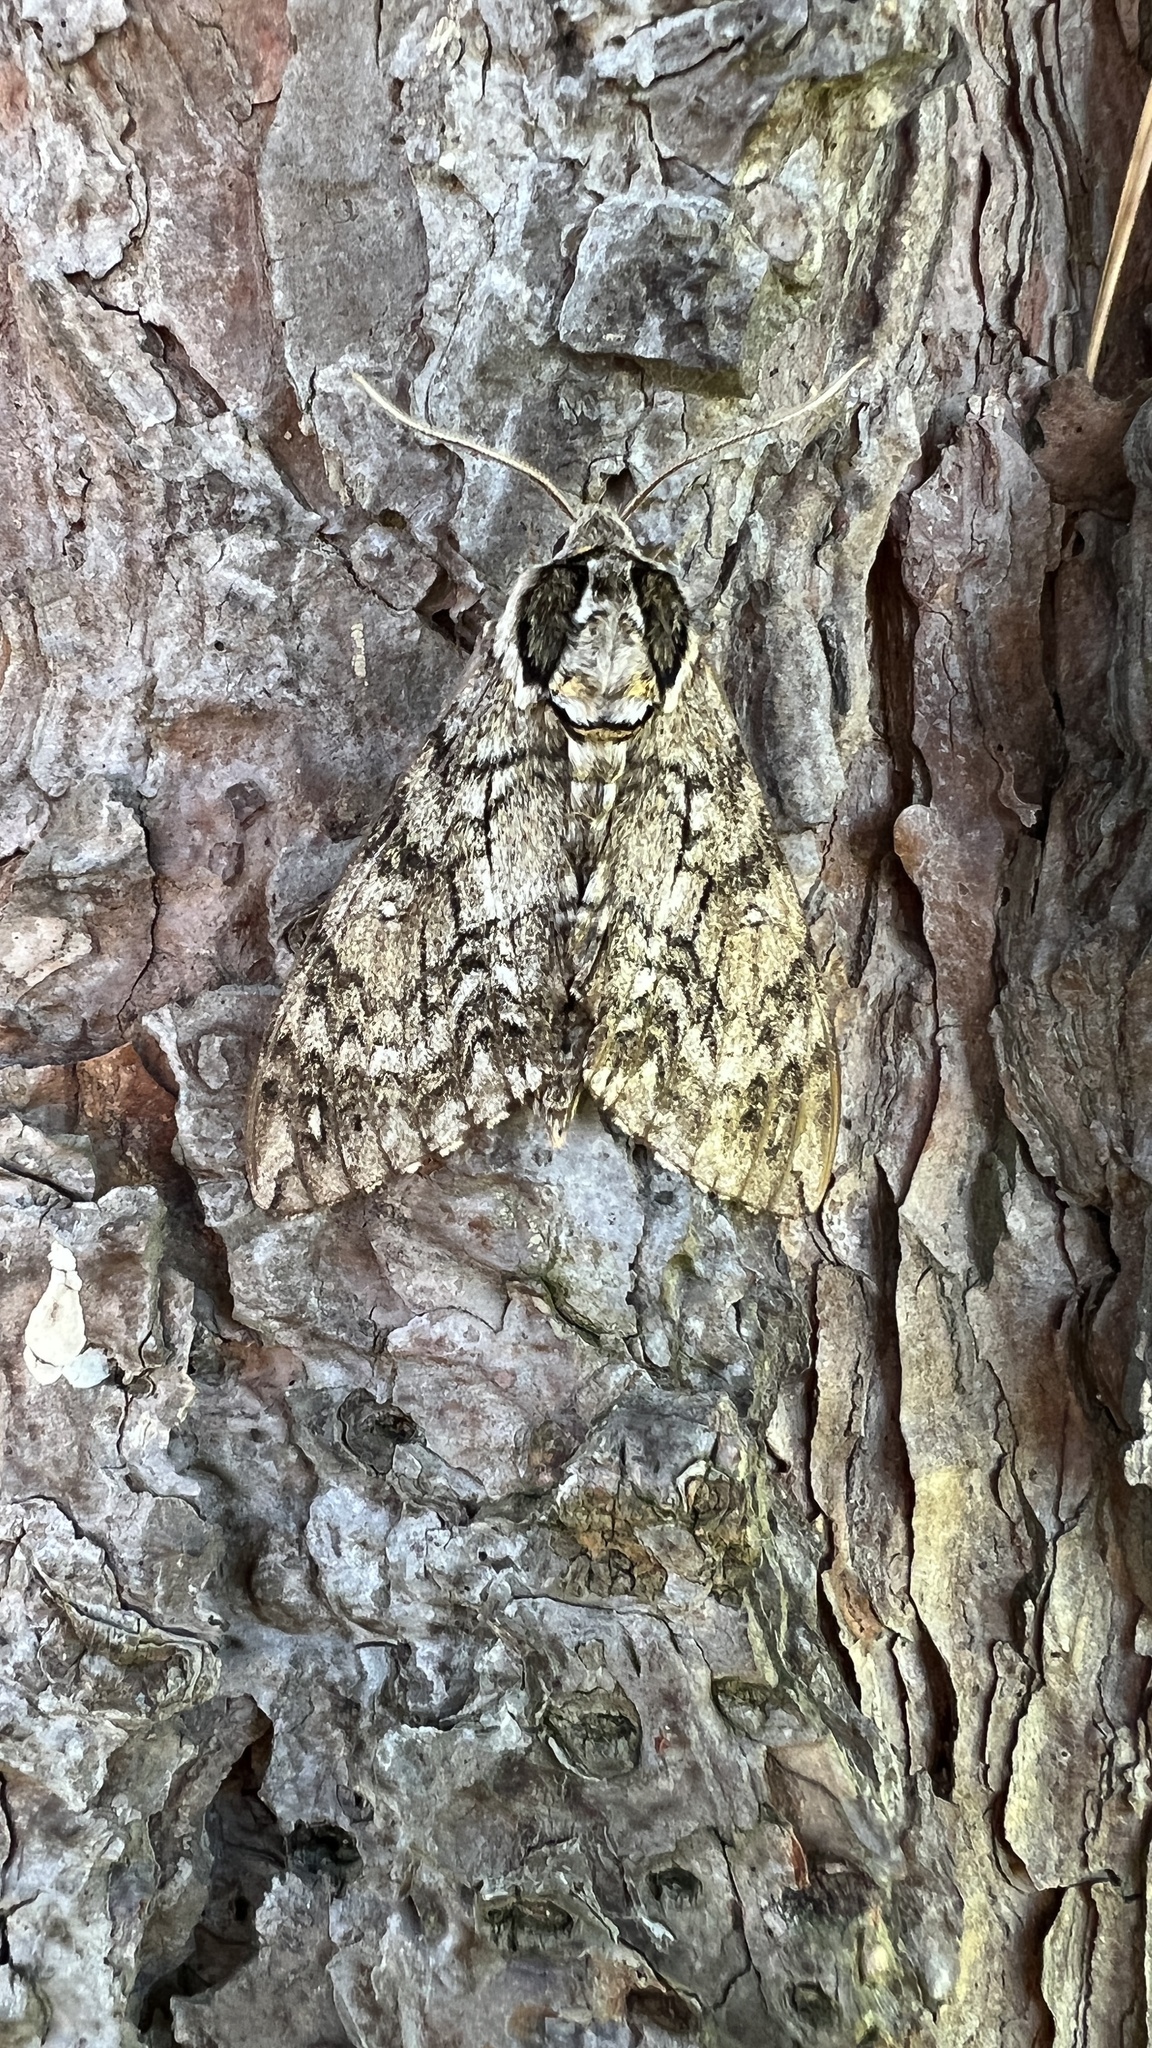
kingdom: Animalia
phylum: Arthropoda
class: Insecta
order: Lepidoptera
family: Sphingidae
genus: Ceratomia
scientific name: Ceratomia undulosa
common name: Waved sphinx
